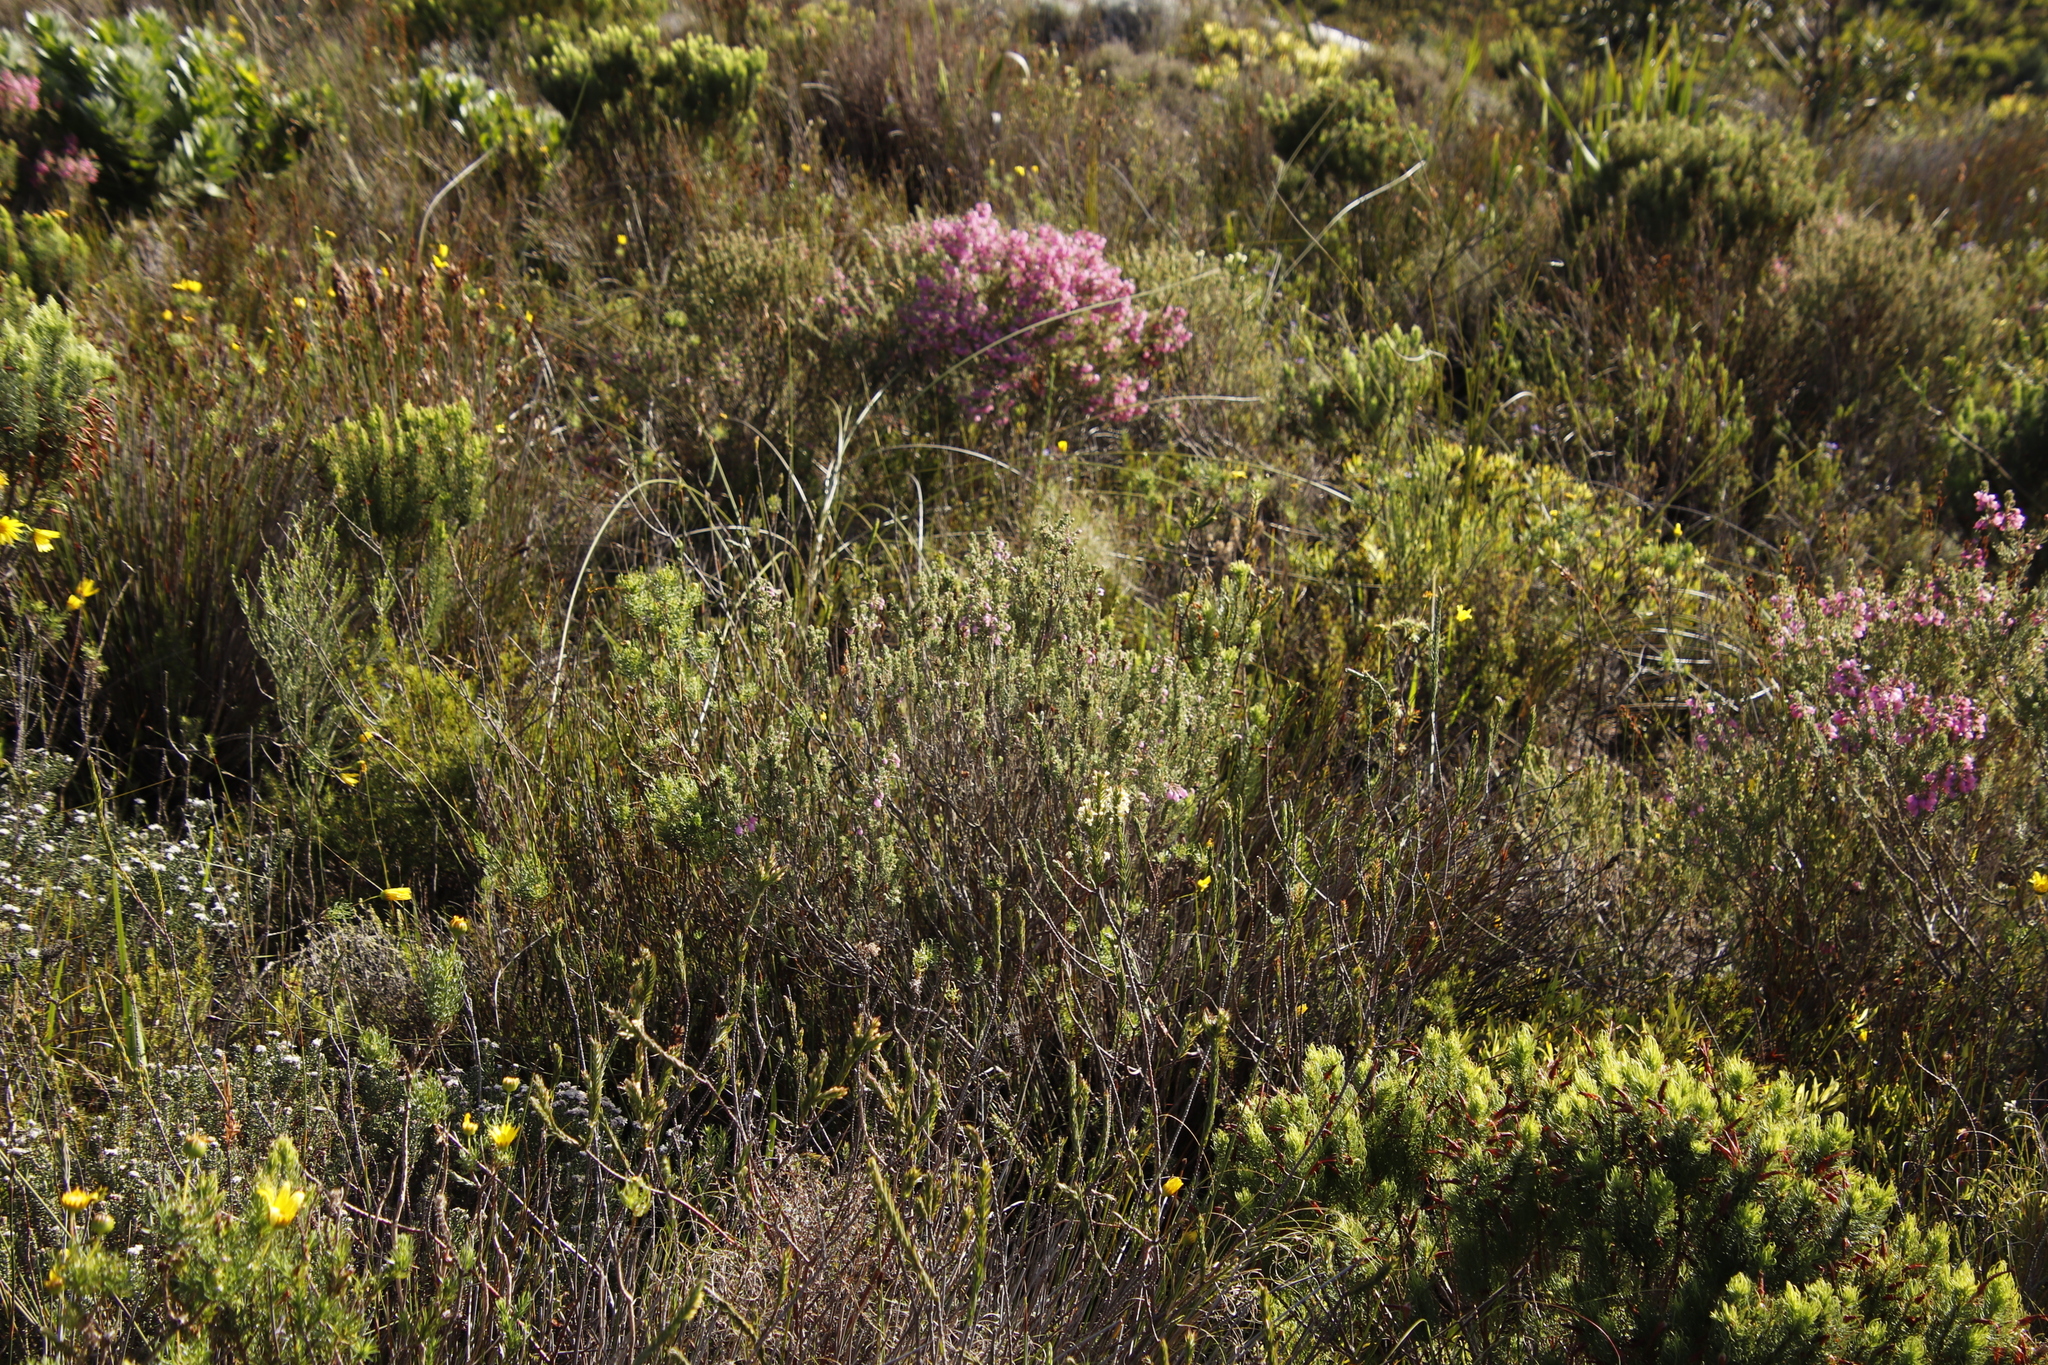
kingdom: Plantae
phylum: Tracheophyta
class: Magnoliopsida
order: Ericales
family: Ericaceae
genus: Erica
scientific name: Erica viscaria
